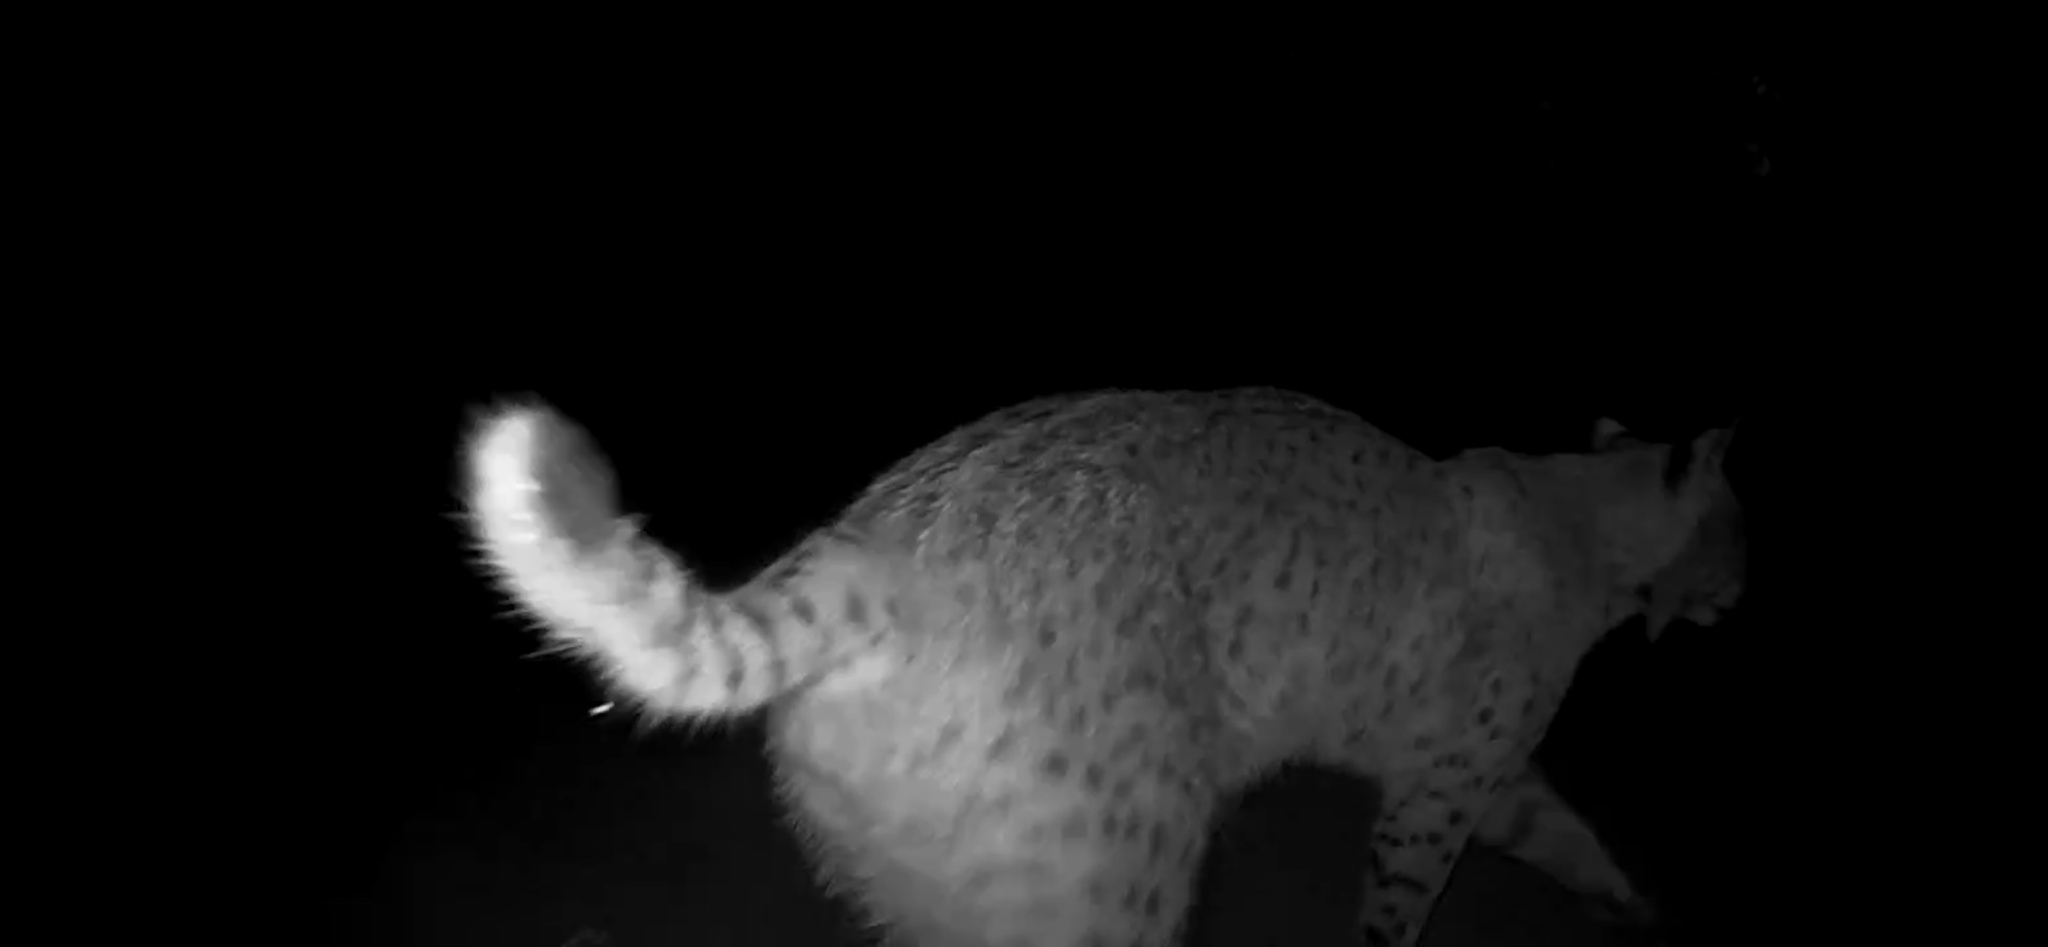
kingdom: Animalia
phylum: Chordata
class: Mammalia
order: Carnivora
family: Felidae
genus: Lynx
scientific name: Lynx rufus
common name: Bobcat
